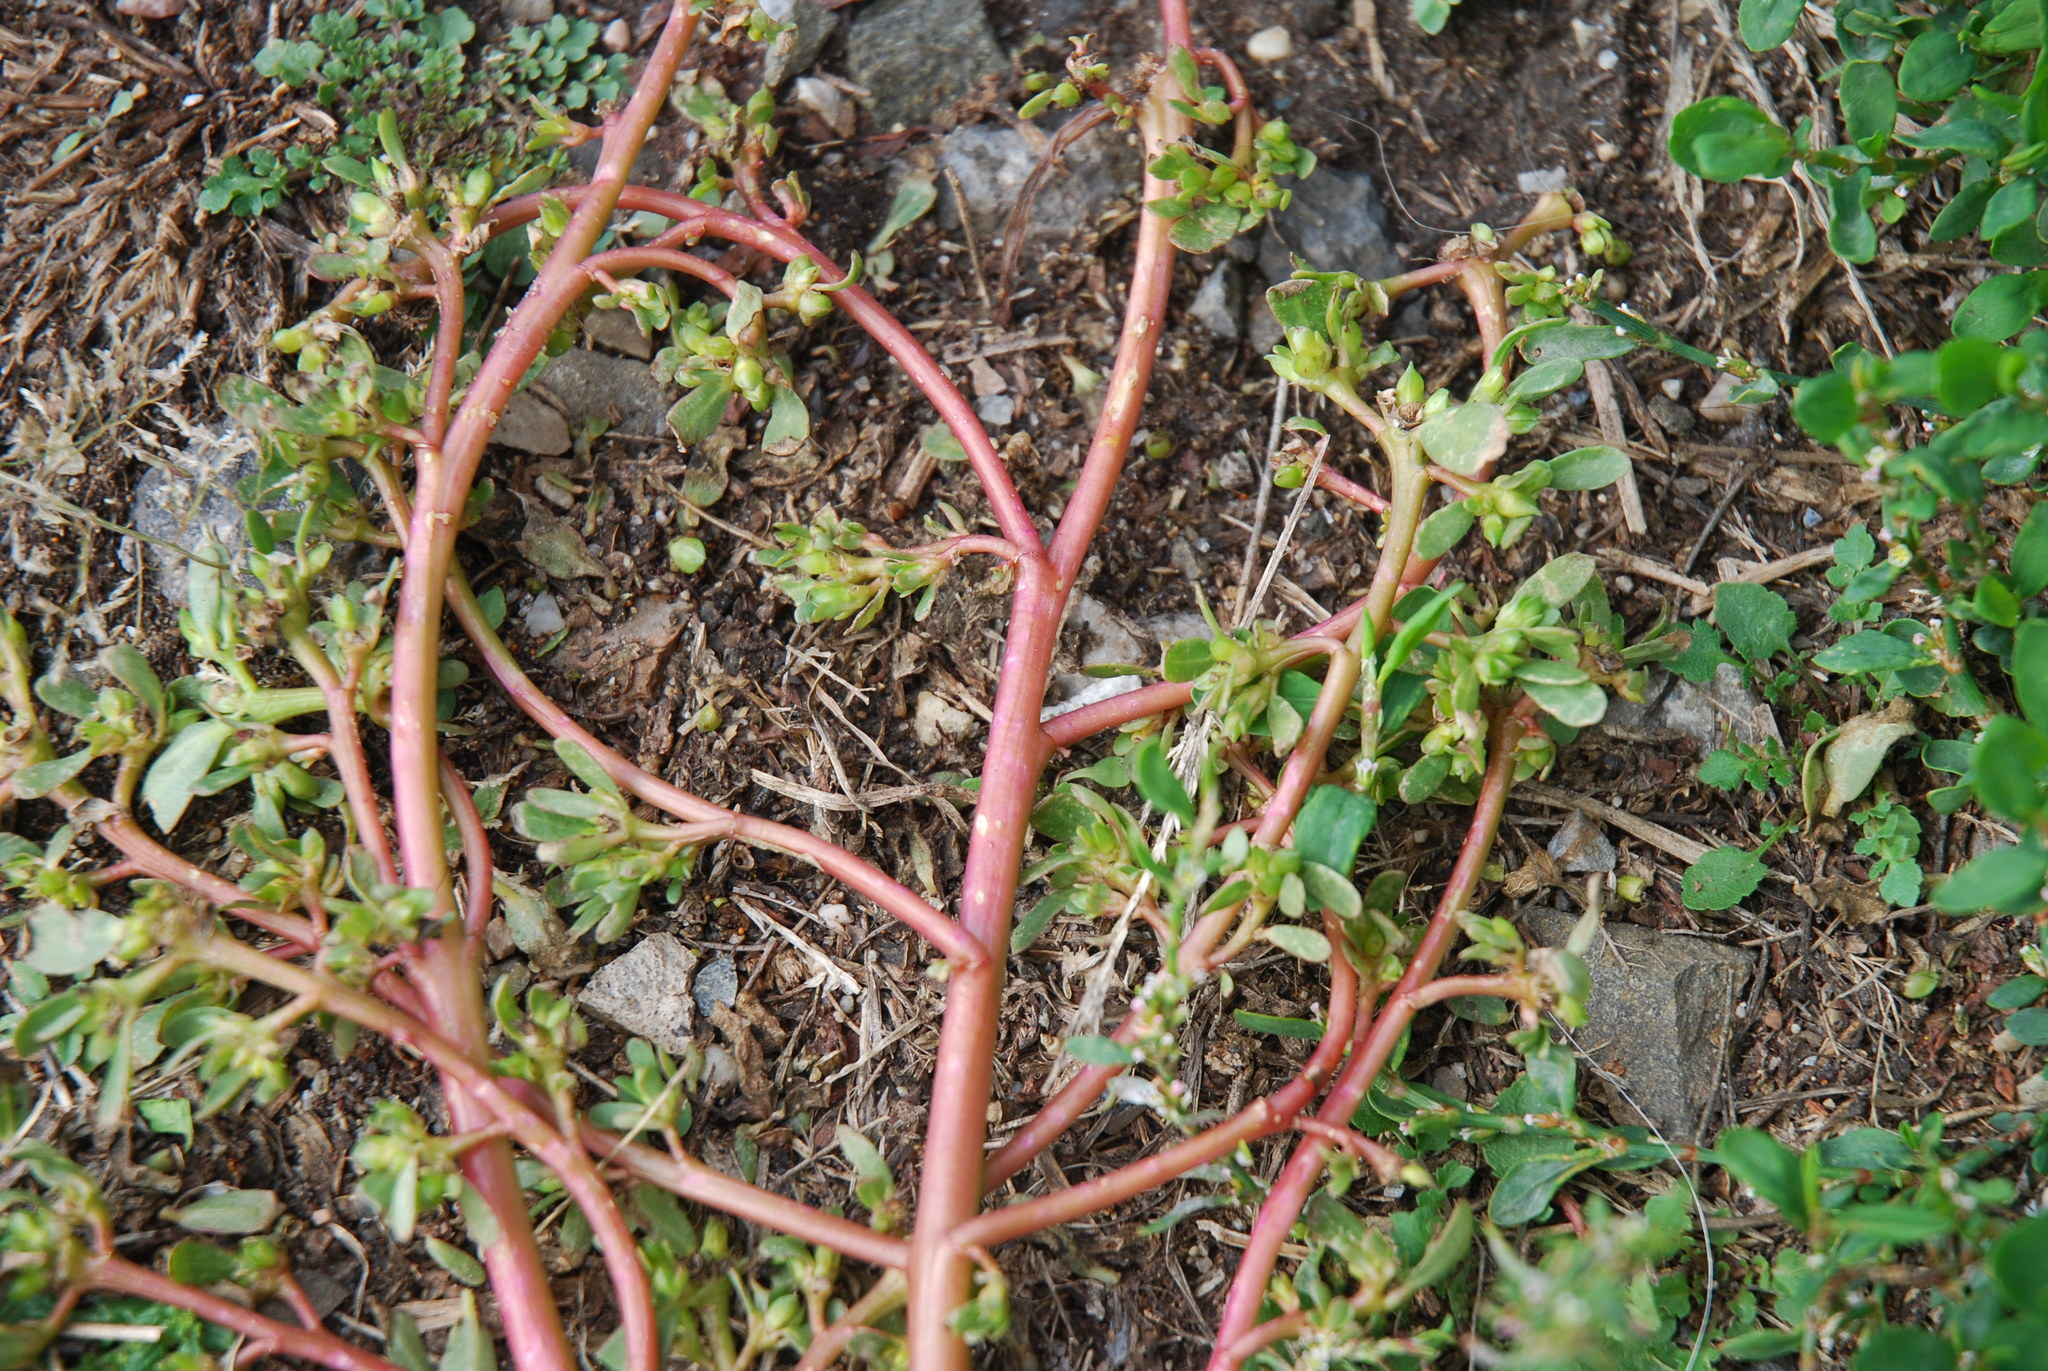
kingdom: Plantae
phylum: Tracheophyta
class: Magnoliopsida
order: Caryophyllales
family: Portulacaceae
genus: Portulaca
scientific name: Portulaca oleracea
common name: Common purslane
